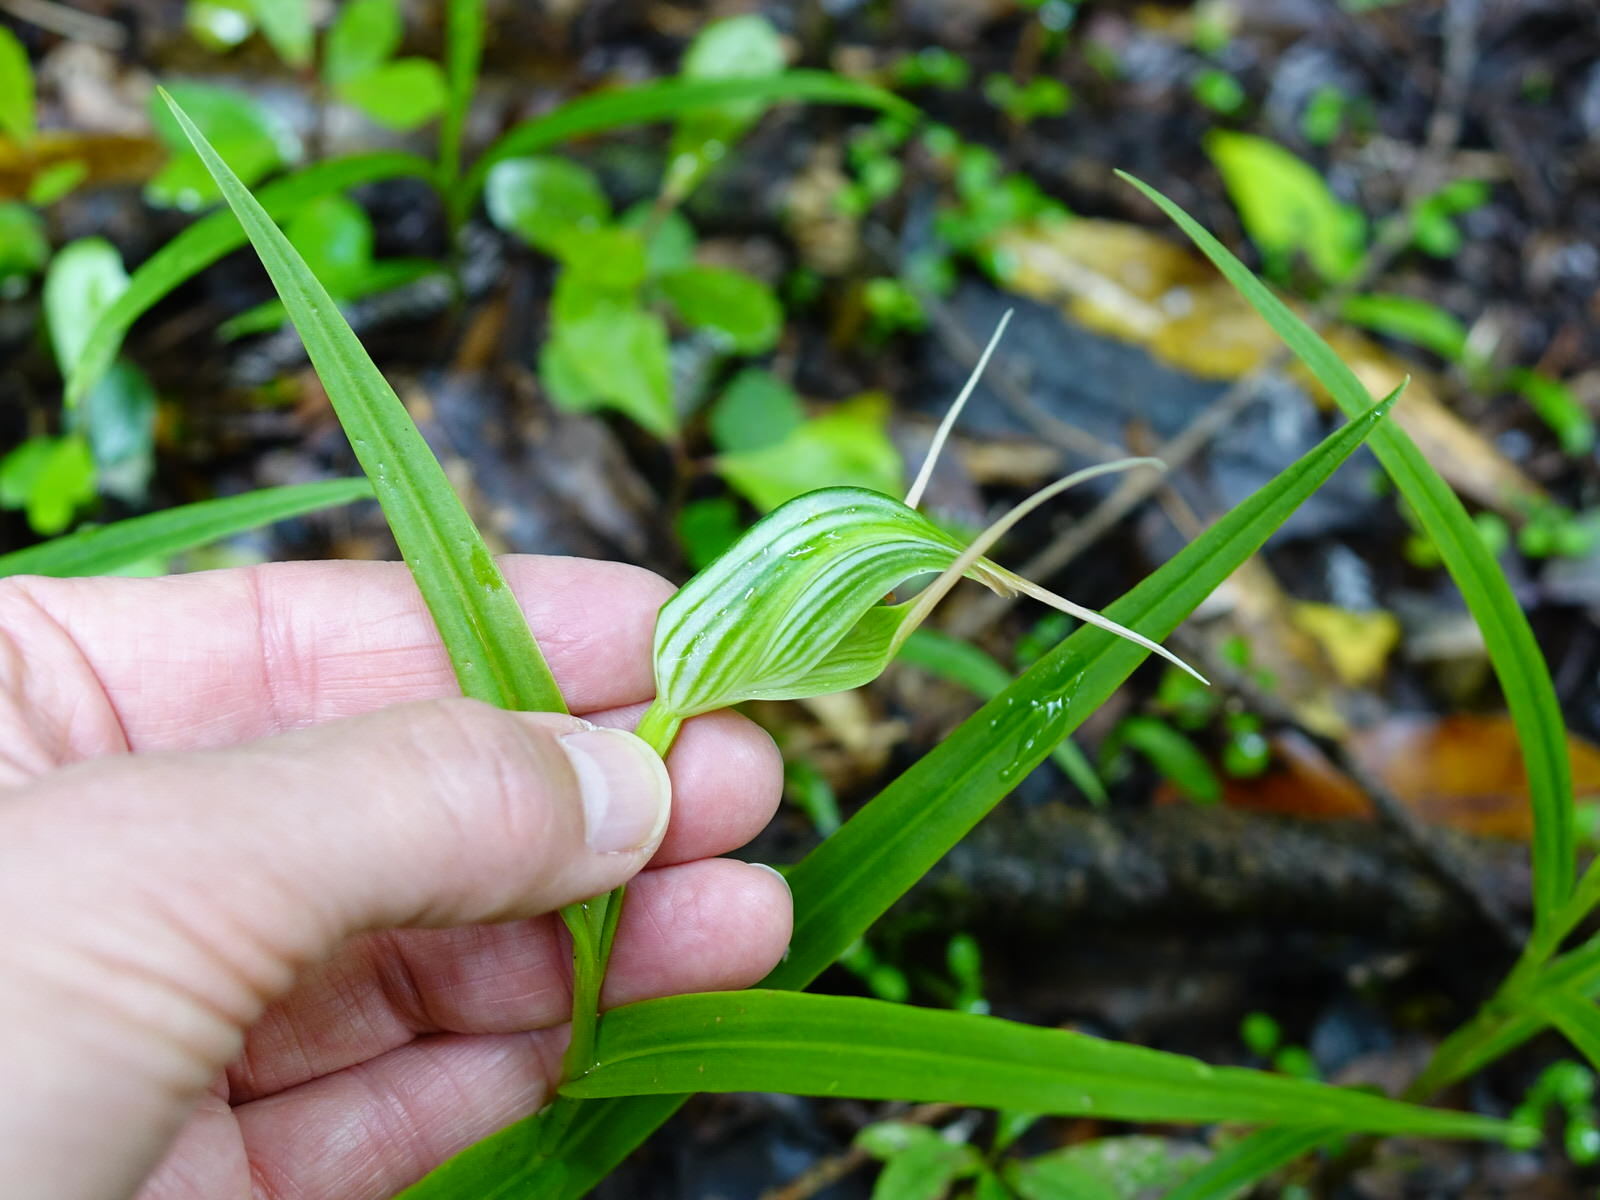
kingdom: Plantae
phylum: Tracheophyta
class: Liliopsida
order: Asparagales
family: Orchidaceae
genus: Pterostylis
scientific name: Pterostylis banksii
